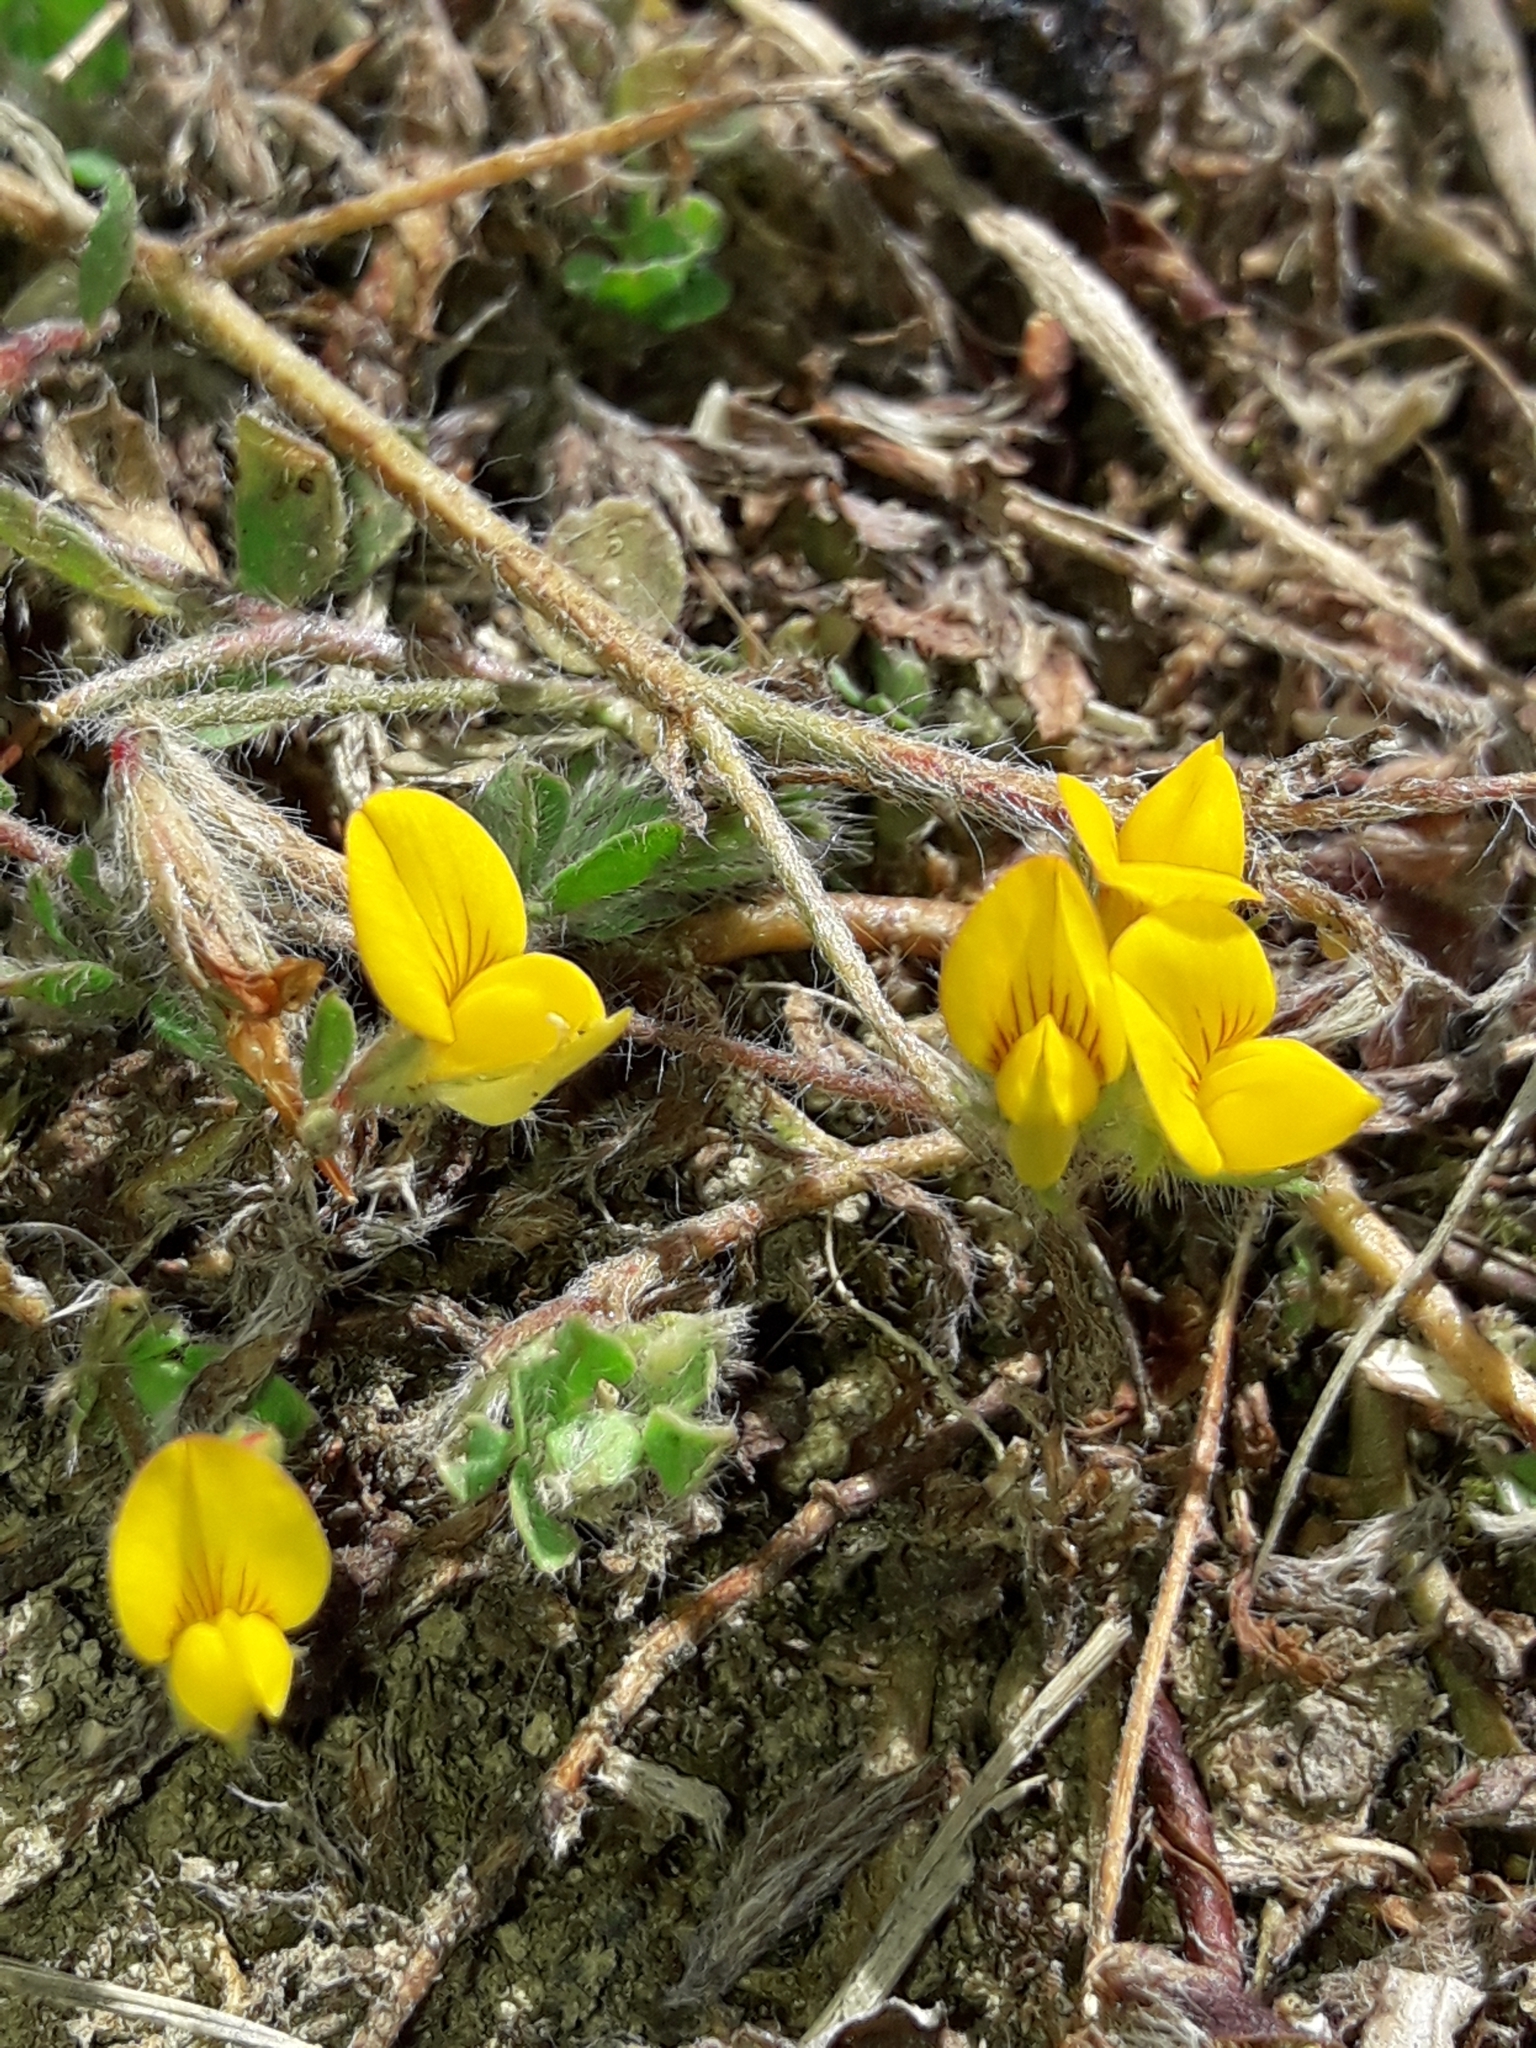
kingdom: Plantae
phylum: Tracheophyta
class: Magnoliopsida
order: Fabales
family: Fabaceae
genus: Lotus
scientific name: Lotus subbiflorus
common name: Hairy bird's-foot trefoil
